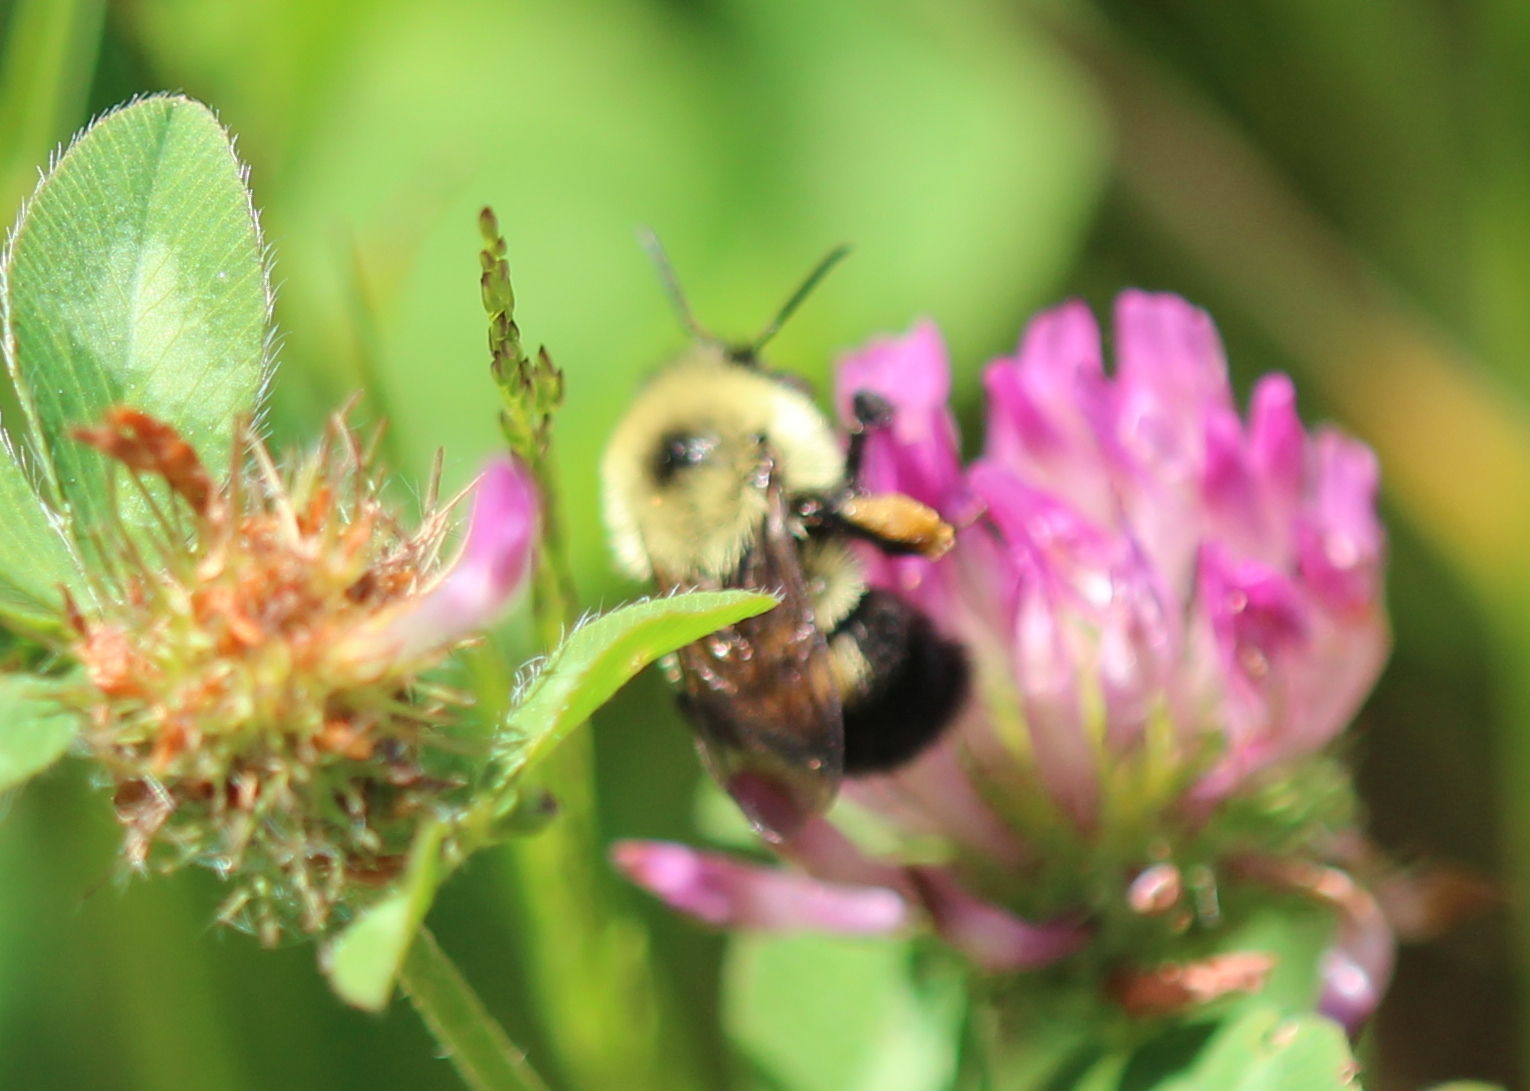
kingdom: Animalia
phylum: Arthropoda
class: Insecta
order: Hymenoptera
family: Apidae
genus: Bombus
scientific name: Bombus bimaculatus
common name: Two-spotted bumble bee
